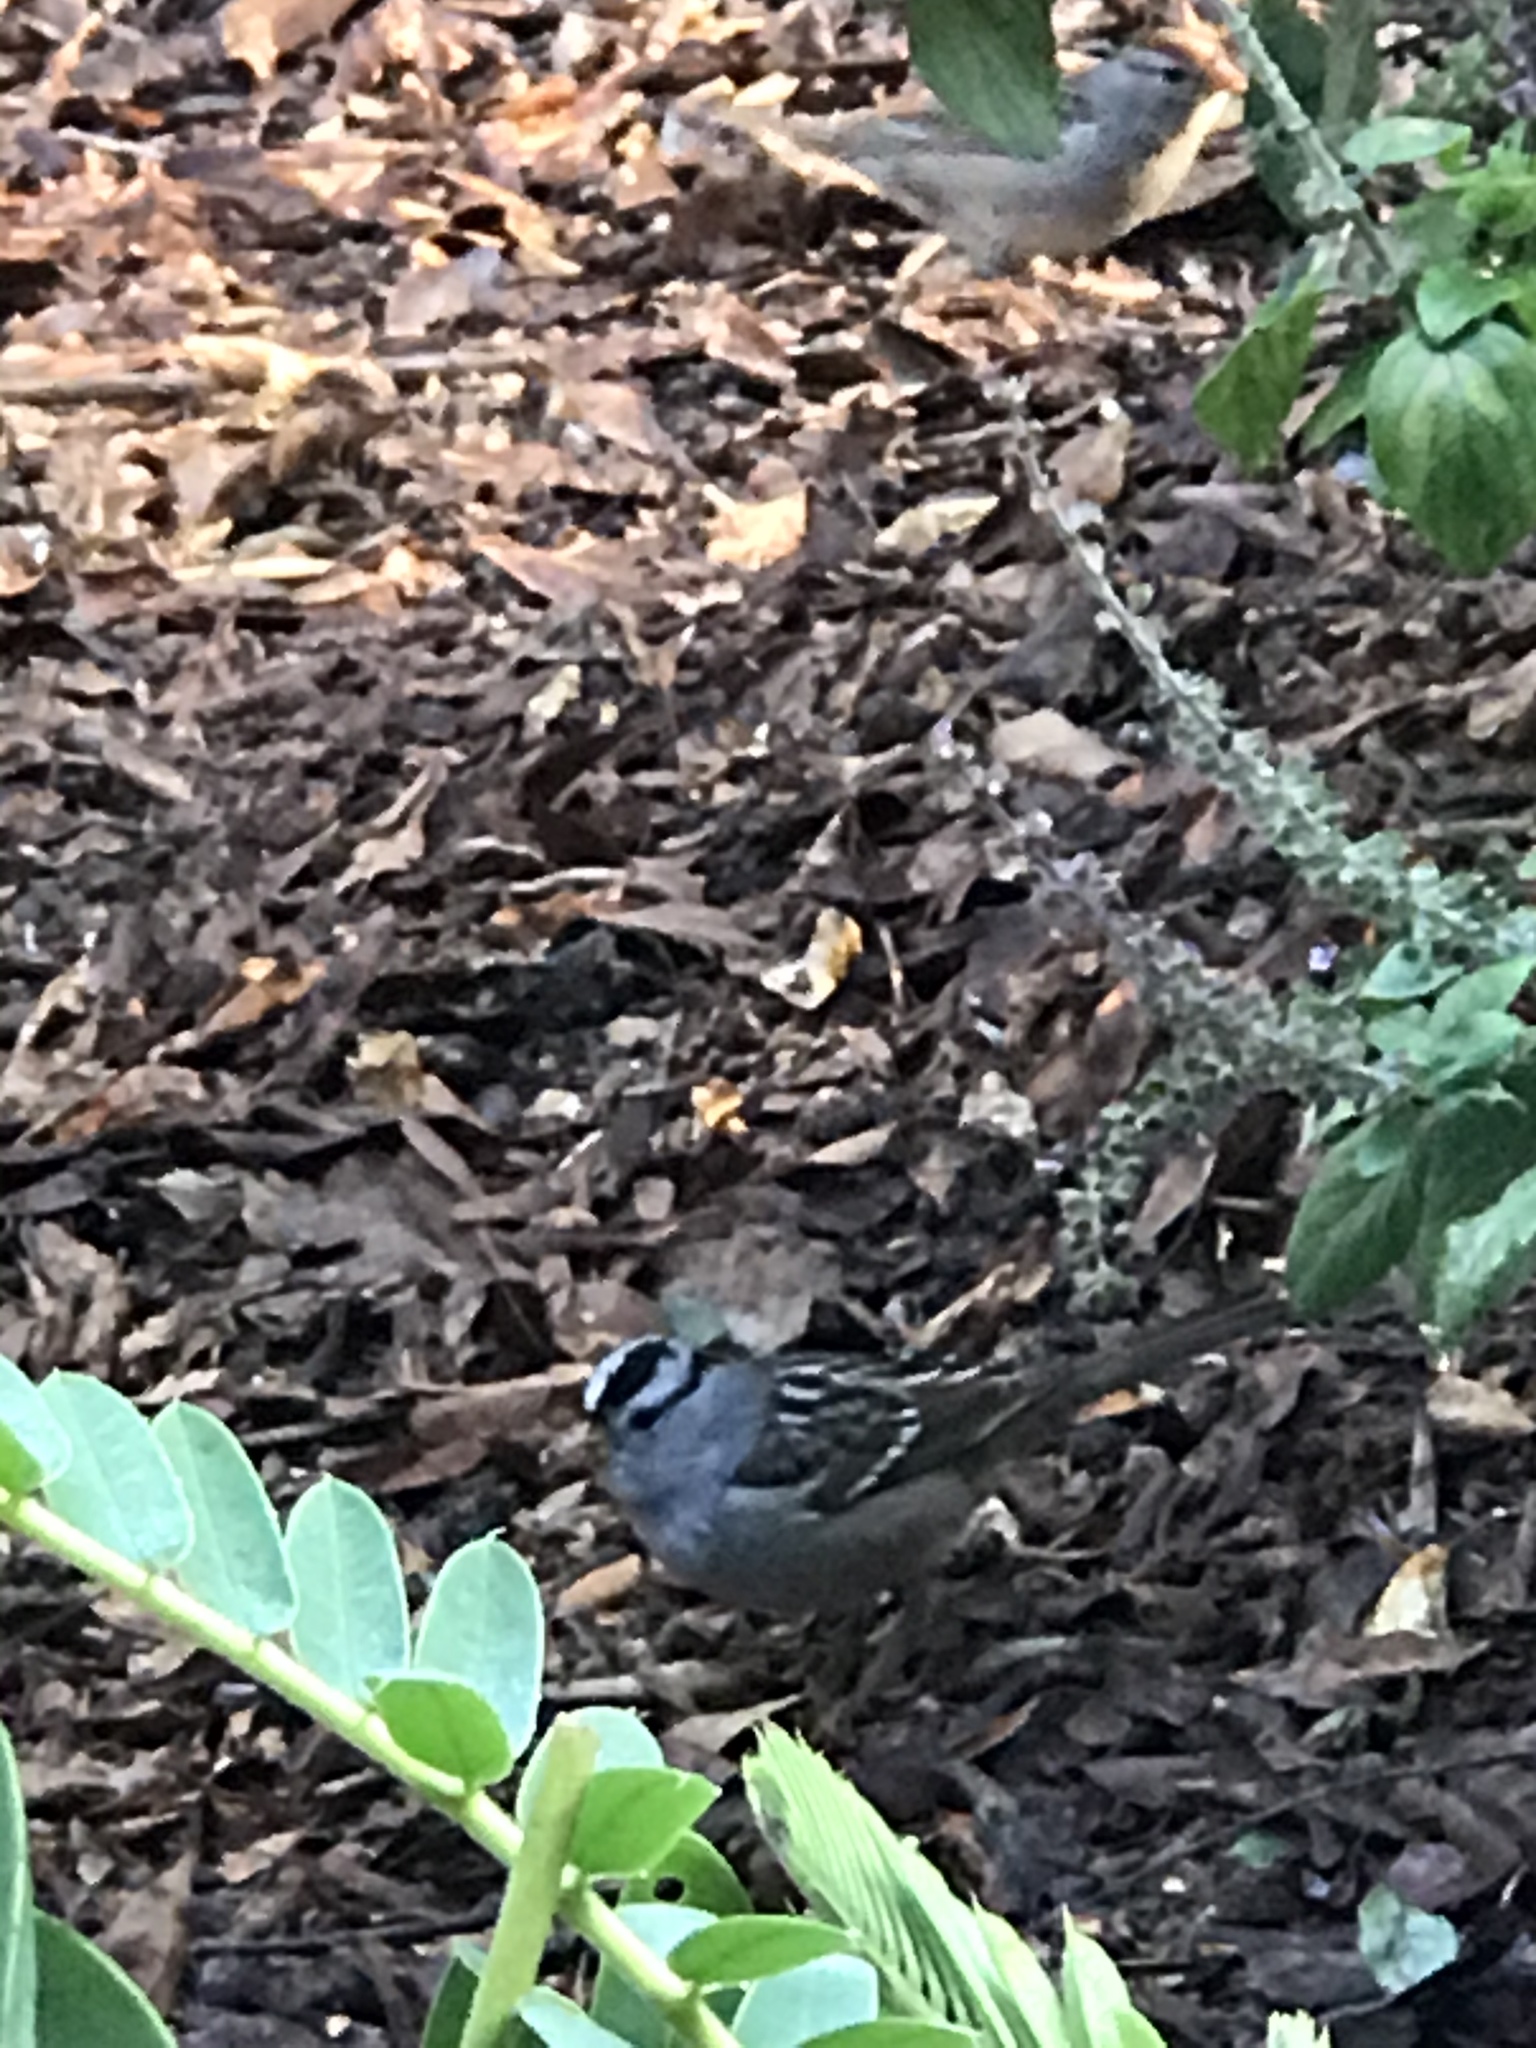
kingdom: Animalia
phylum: Chordata
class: Aves
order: Passeriformes
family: Passerellidae
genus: Zonotrichia
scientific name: Zonotrichia leucophrys
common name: White-crowned sparrow
